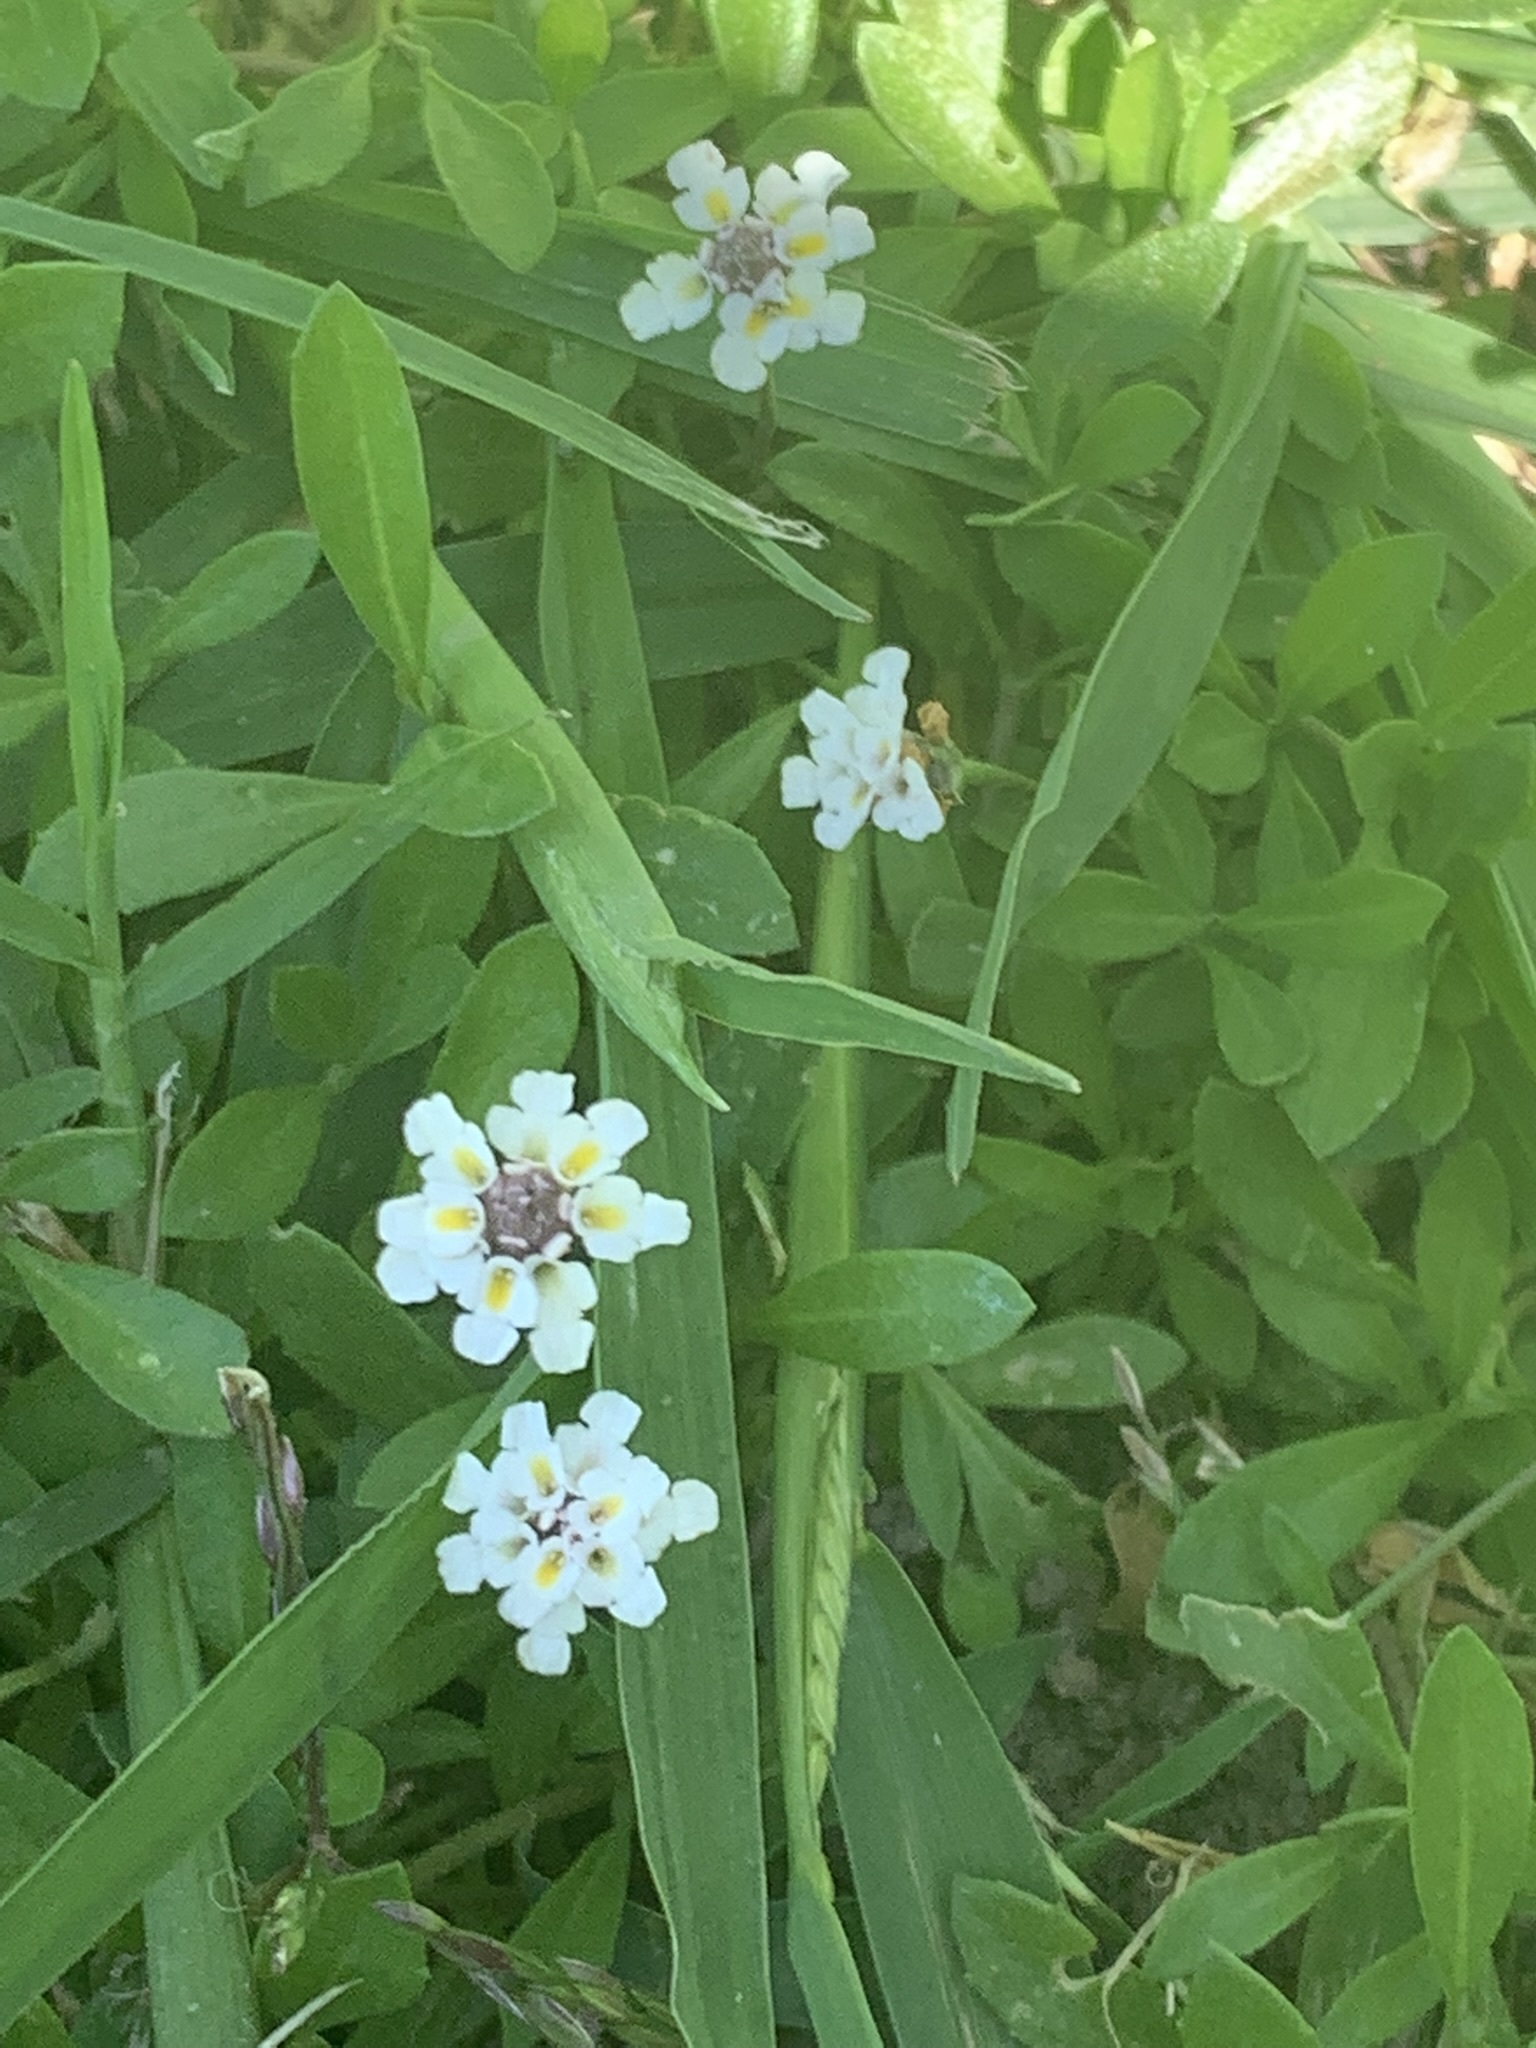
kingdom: Plantae
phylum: Tracheophyta
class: Magnoliopsida
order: Lamiales
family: Verbenaceae
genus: Phyla
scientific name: Phyla nodiflora
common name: Frogfruit
